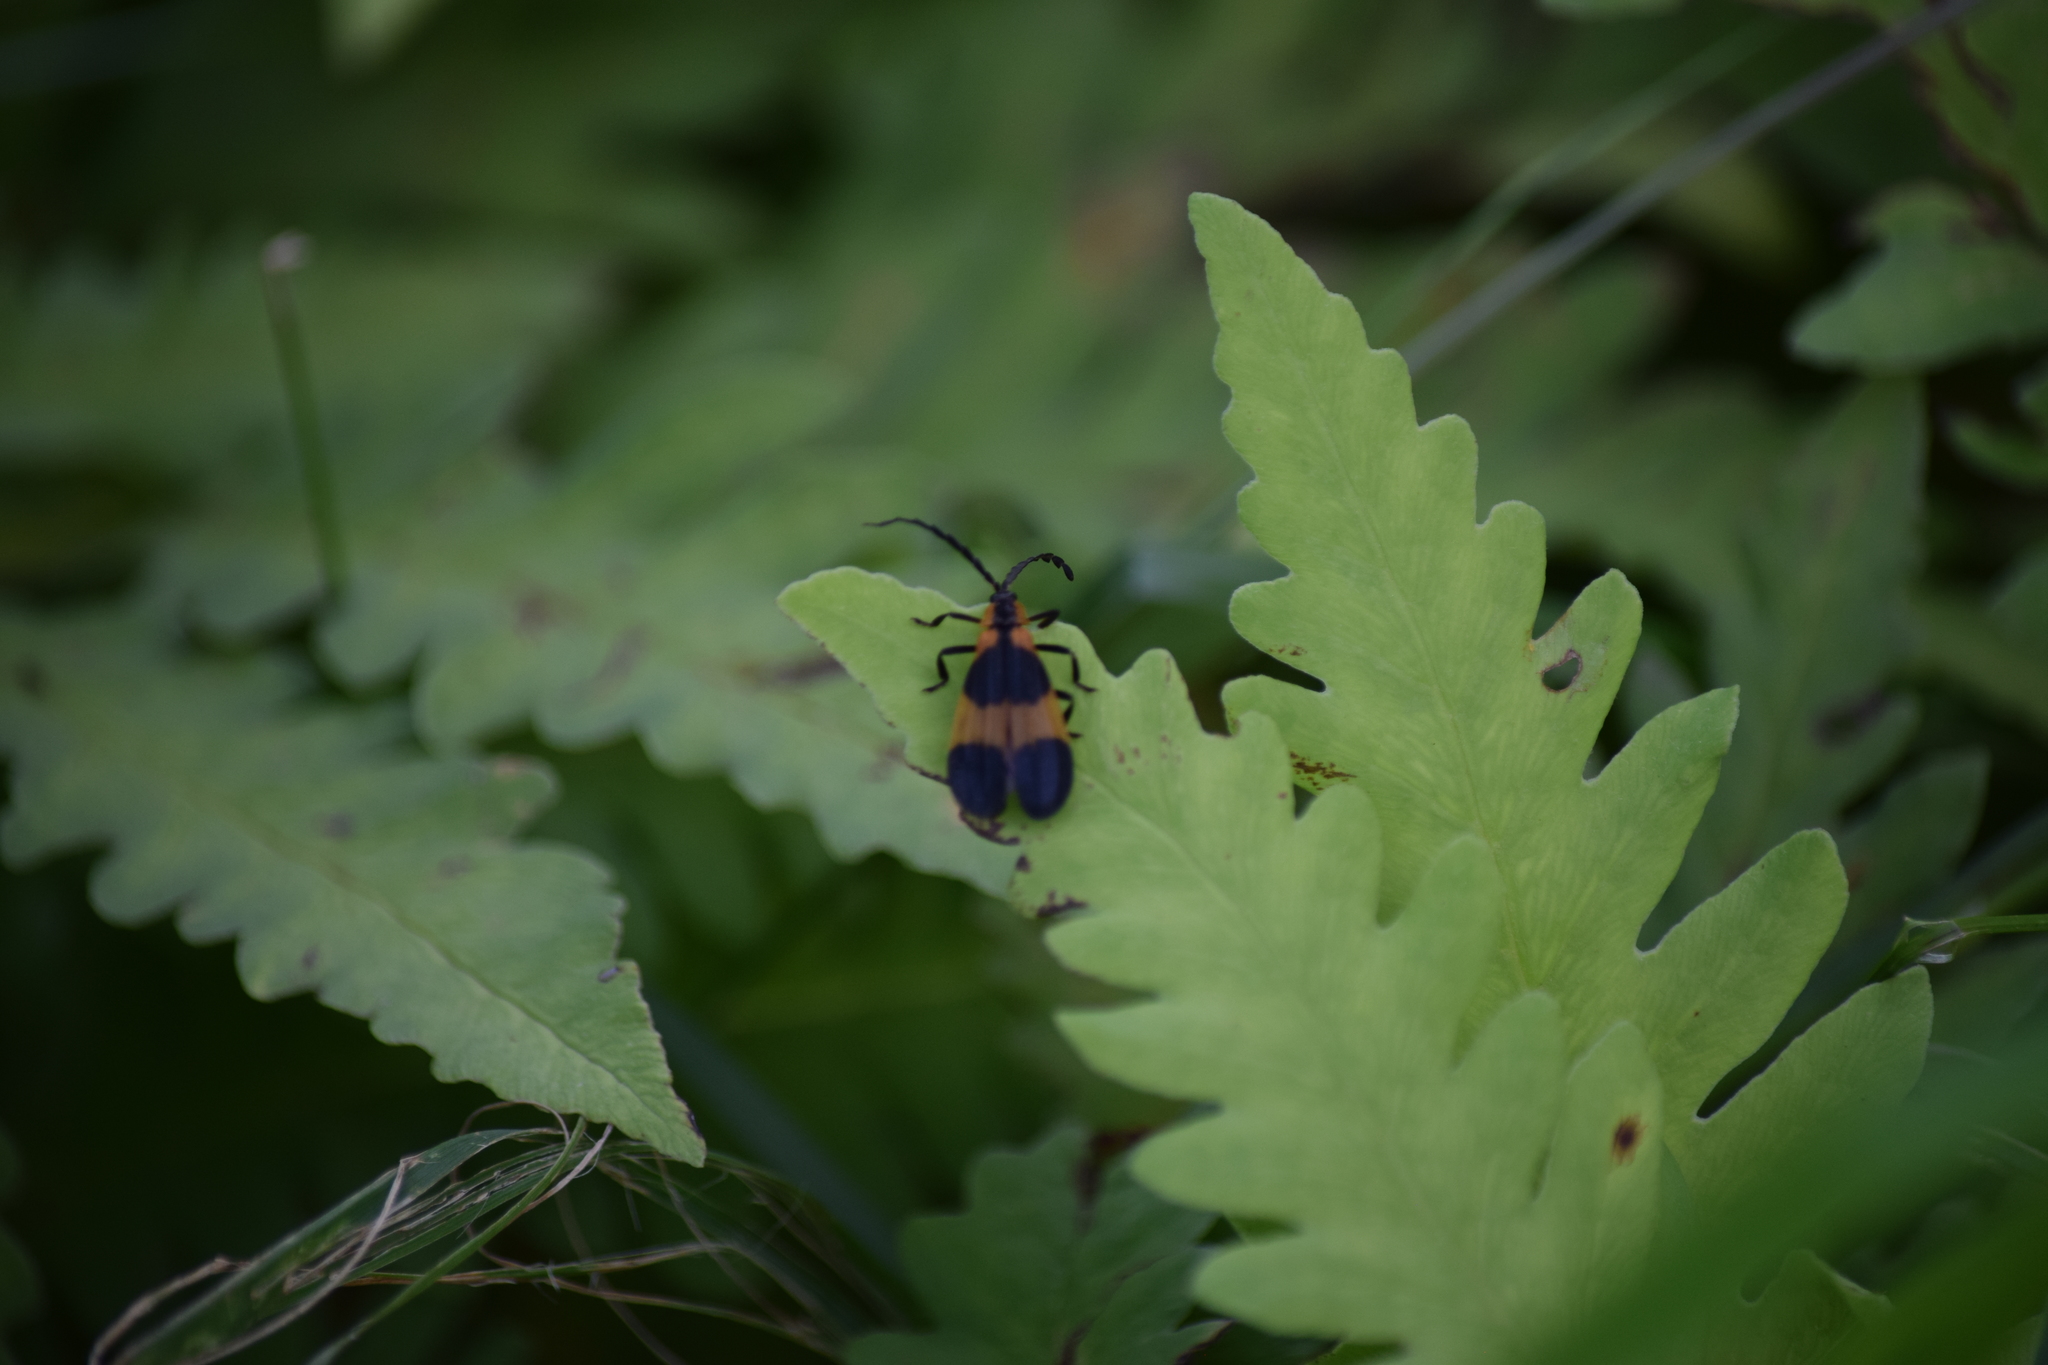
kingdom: Animalia
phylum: Arthropoda
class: Insecta
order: Coleoptera
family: Lycidae
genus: Calopteron
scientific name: Calopteron reticulatum
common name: Banded net-winged beetle
